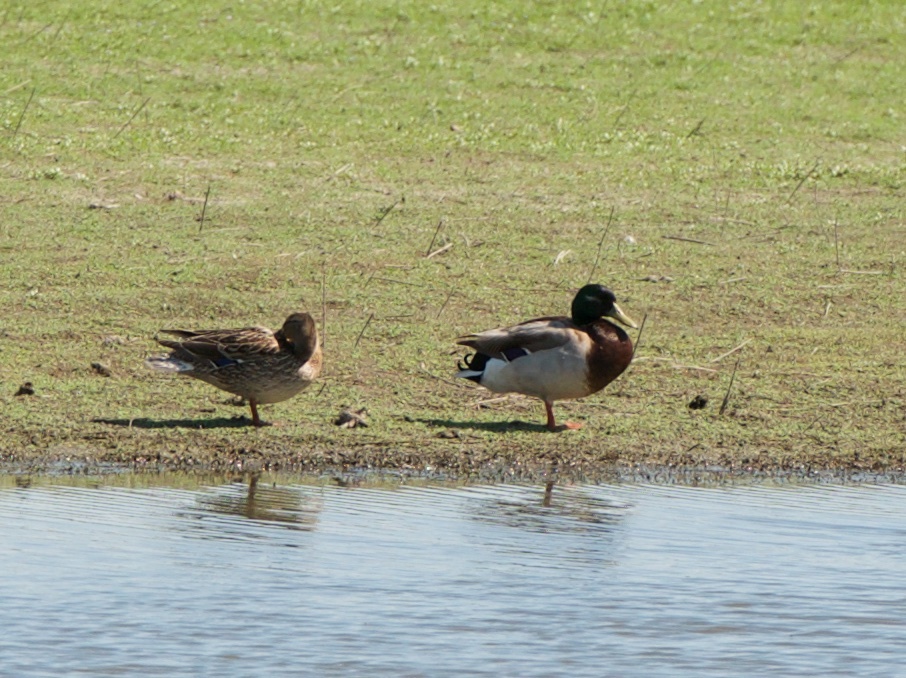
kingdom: Animalia
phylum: Chordata
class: Aves
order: Anseriformes
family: Anatidae
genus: Anas
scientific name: Anas platyrhynchos
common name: Mallard
